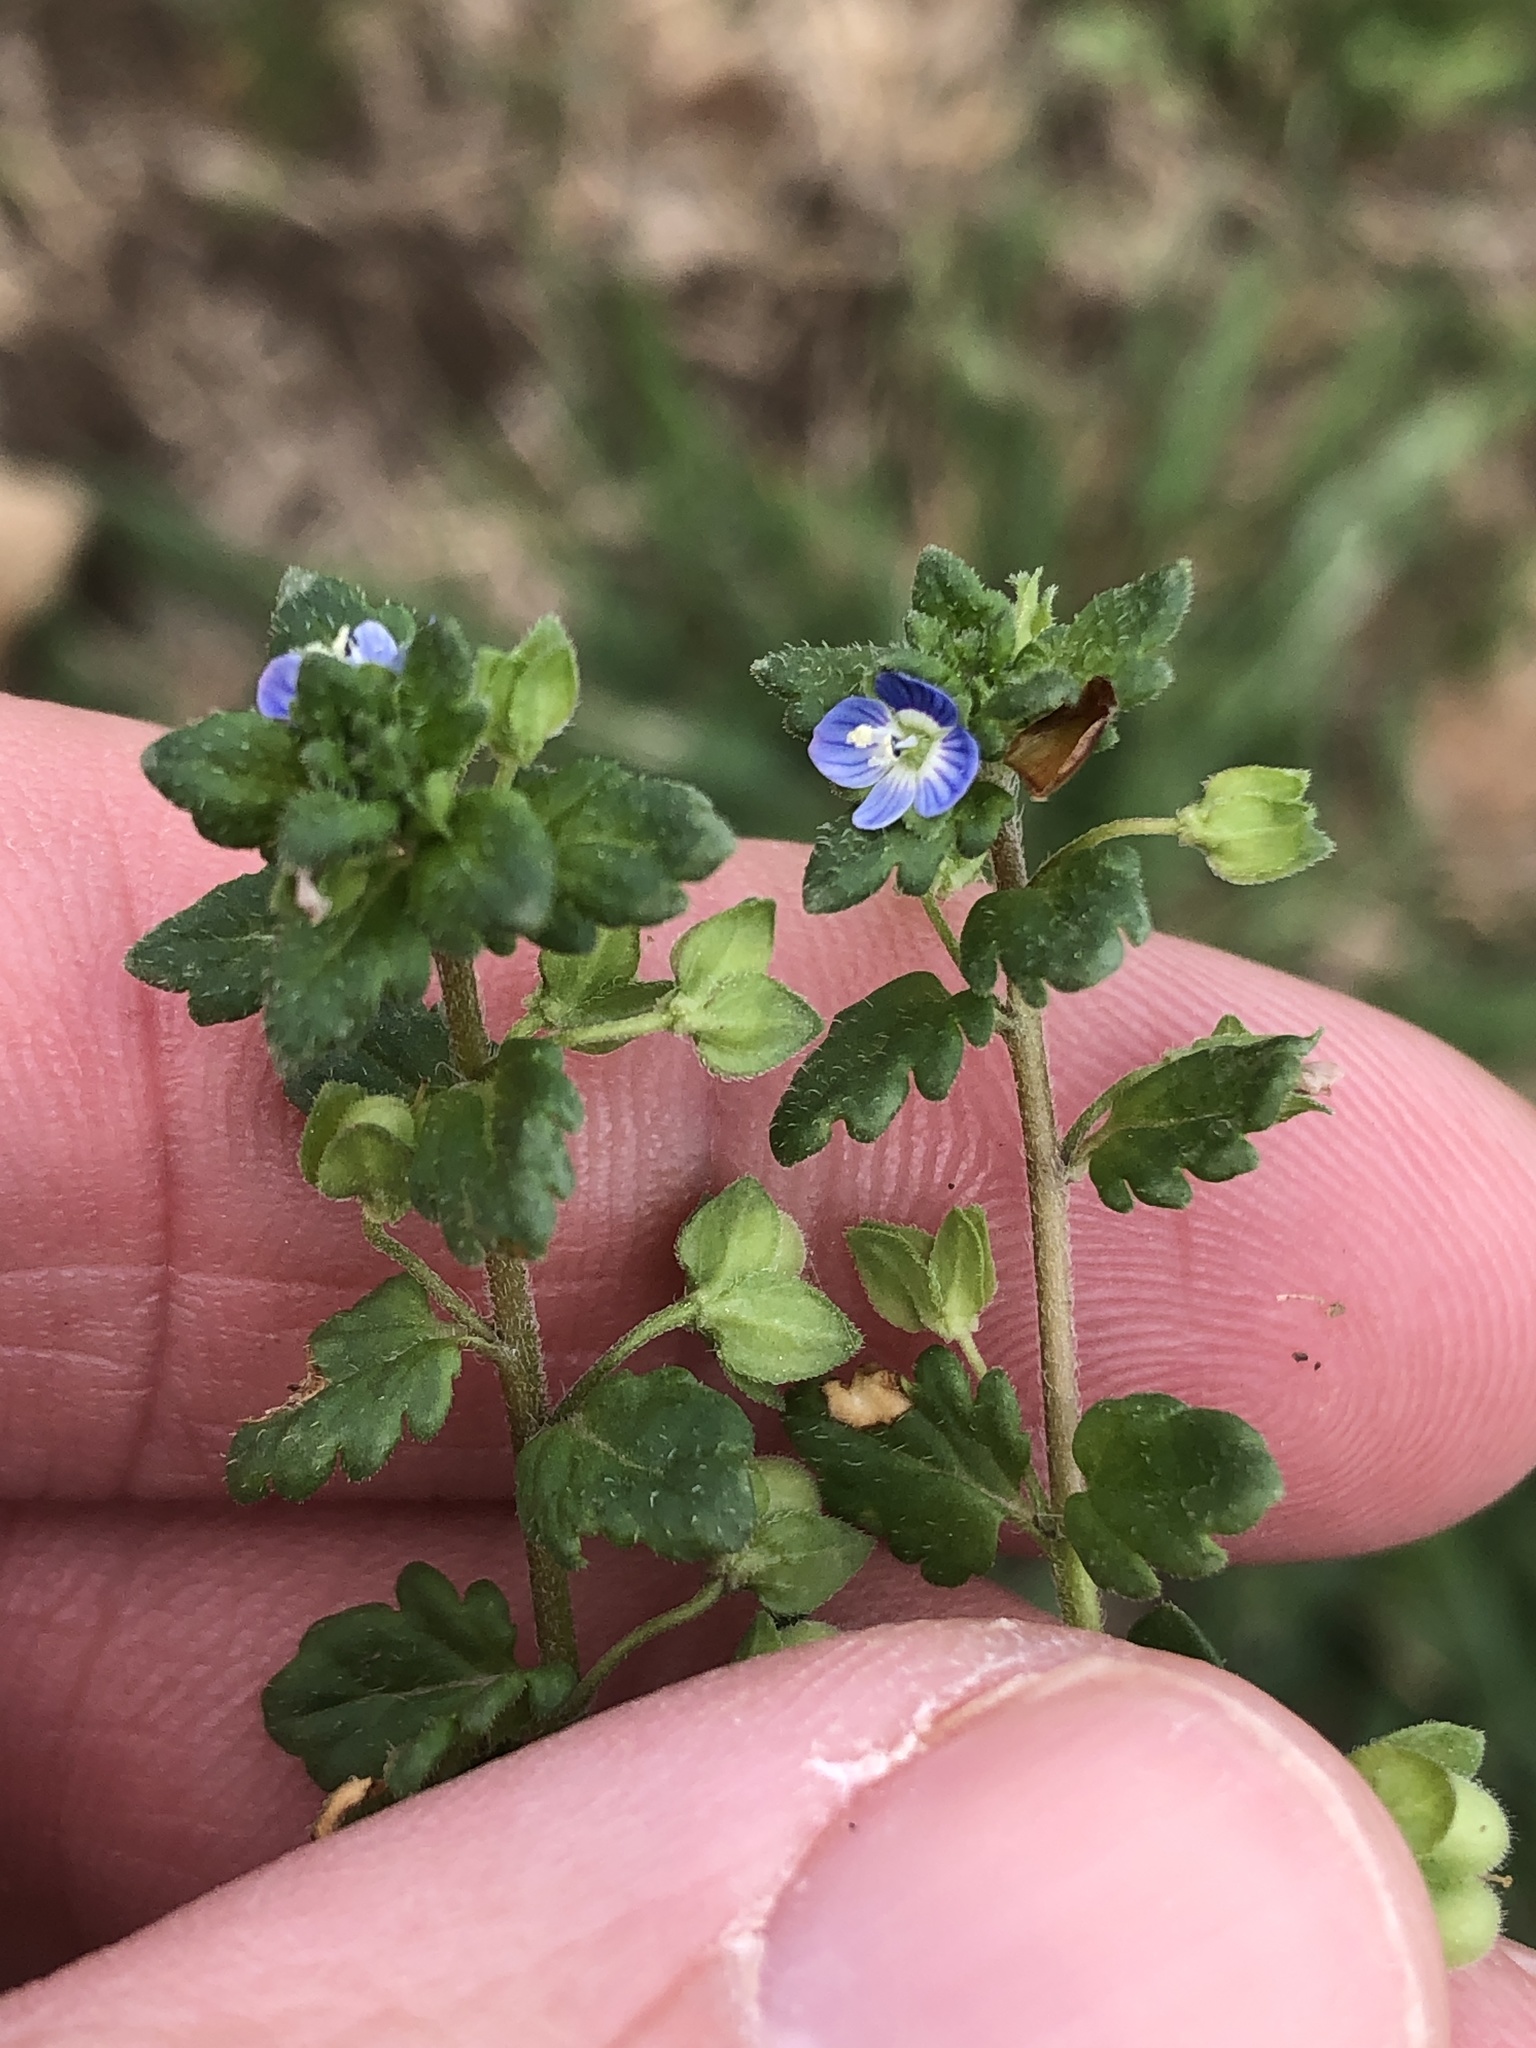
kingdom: Plantae
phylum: Tracheophyta
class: Magnoliopsida
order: Lamiales
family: Plantaginaceae
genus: Veronica
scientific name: Veronica polita
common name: Grey field-speedwell
